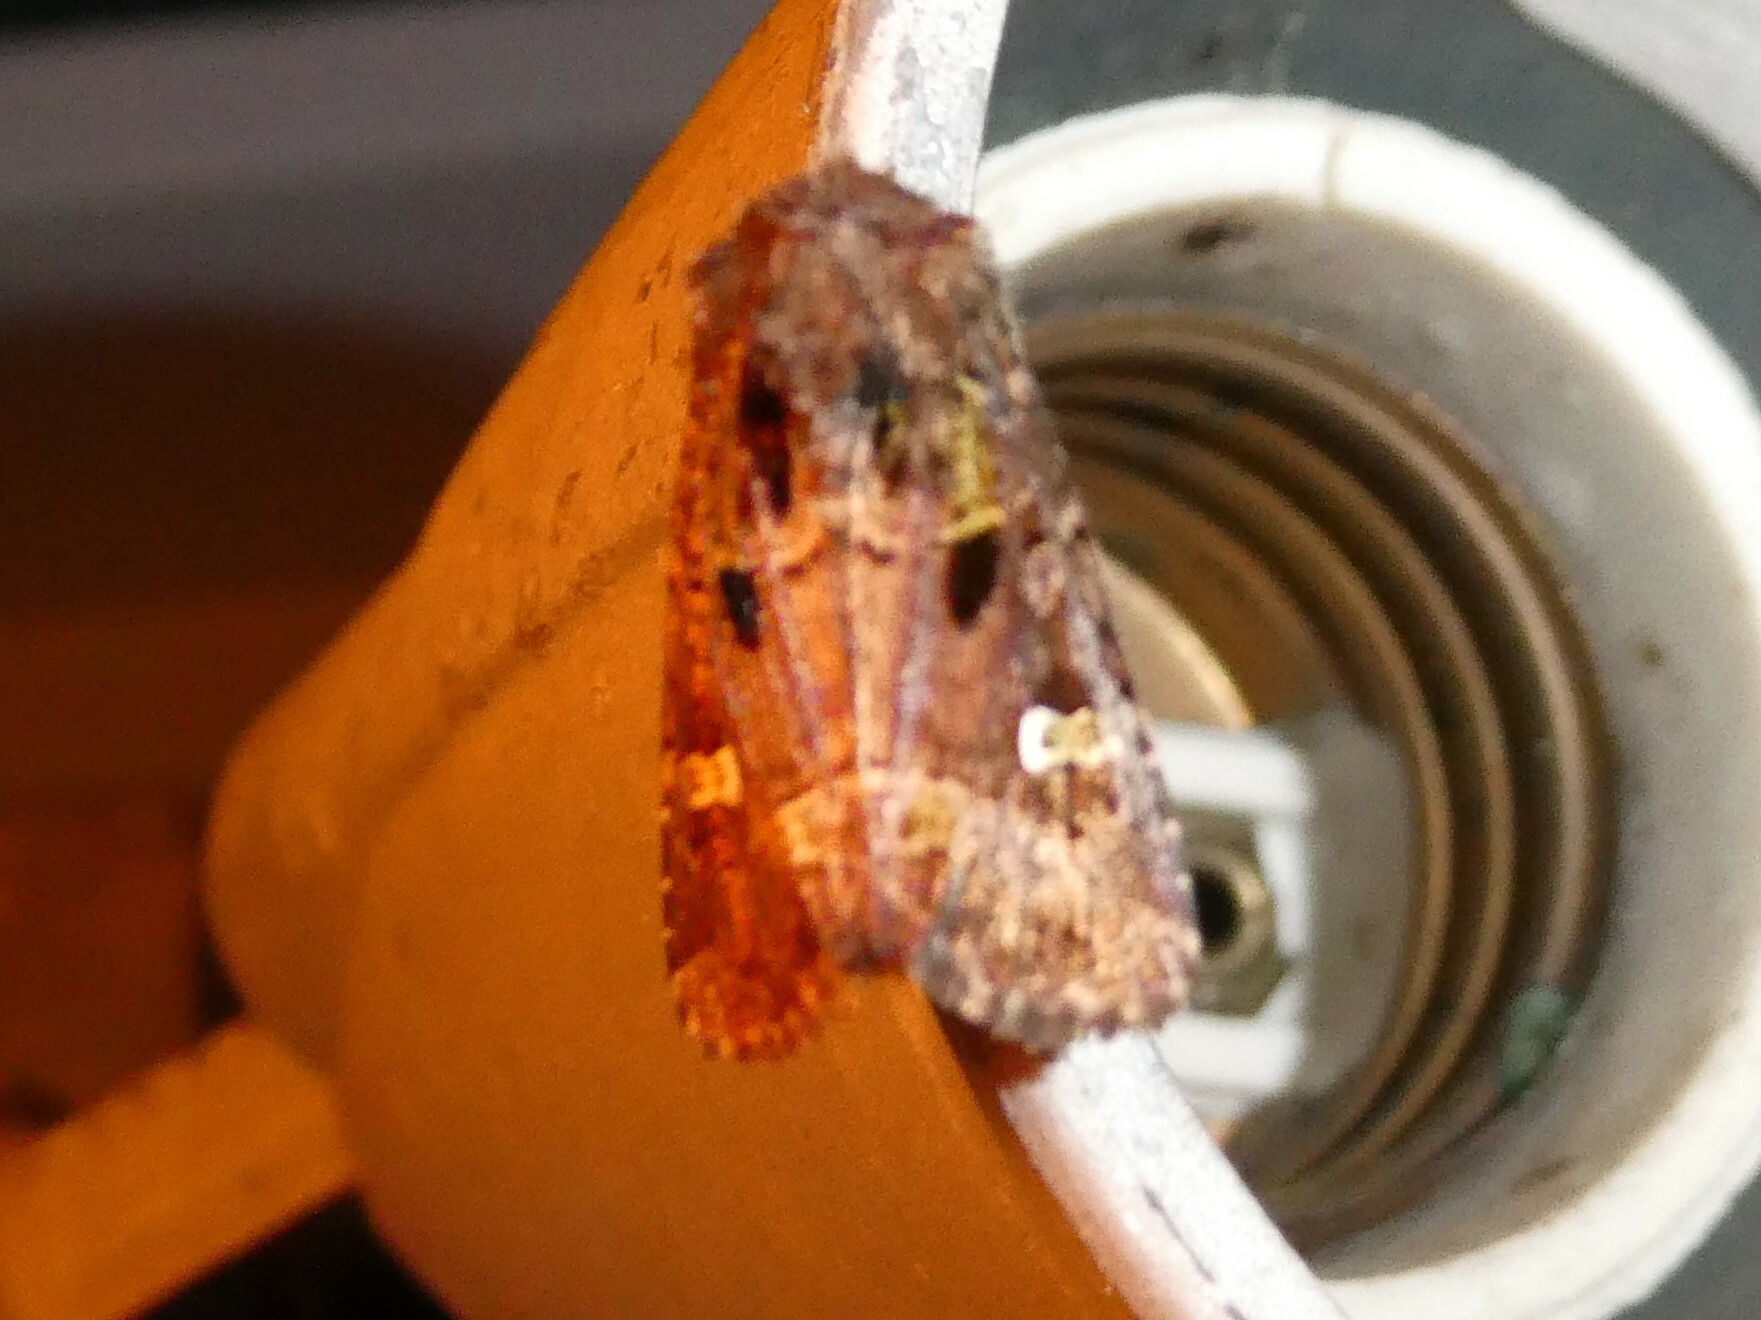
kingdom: Animalia
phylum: Arthropoda
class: Insecta
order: Lepidoptera
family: Noctuidae
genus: Lacinipolia
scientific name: Lacinipolia renigera
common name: Kidney-spotted minor
